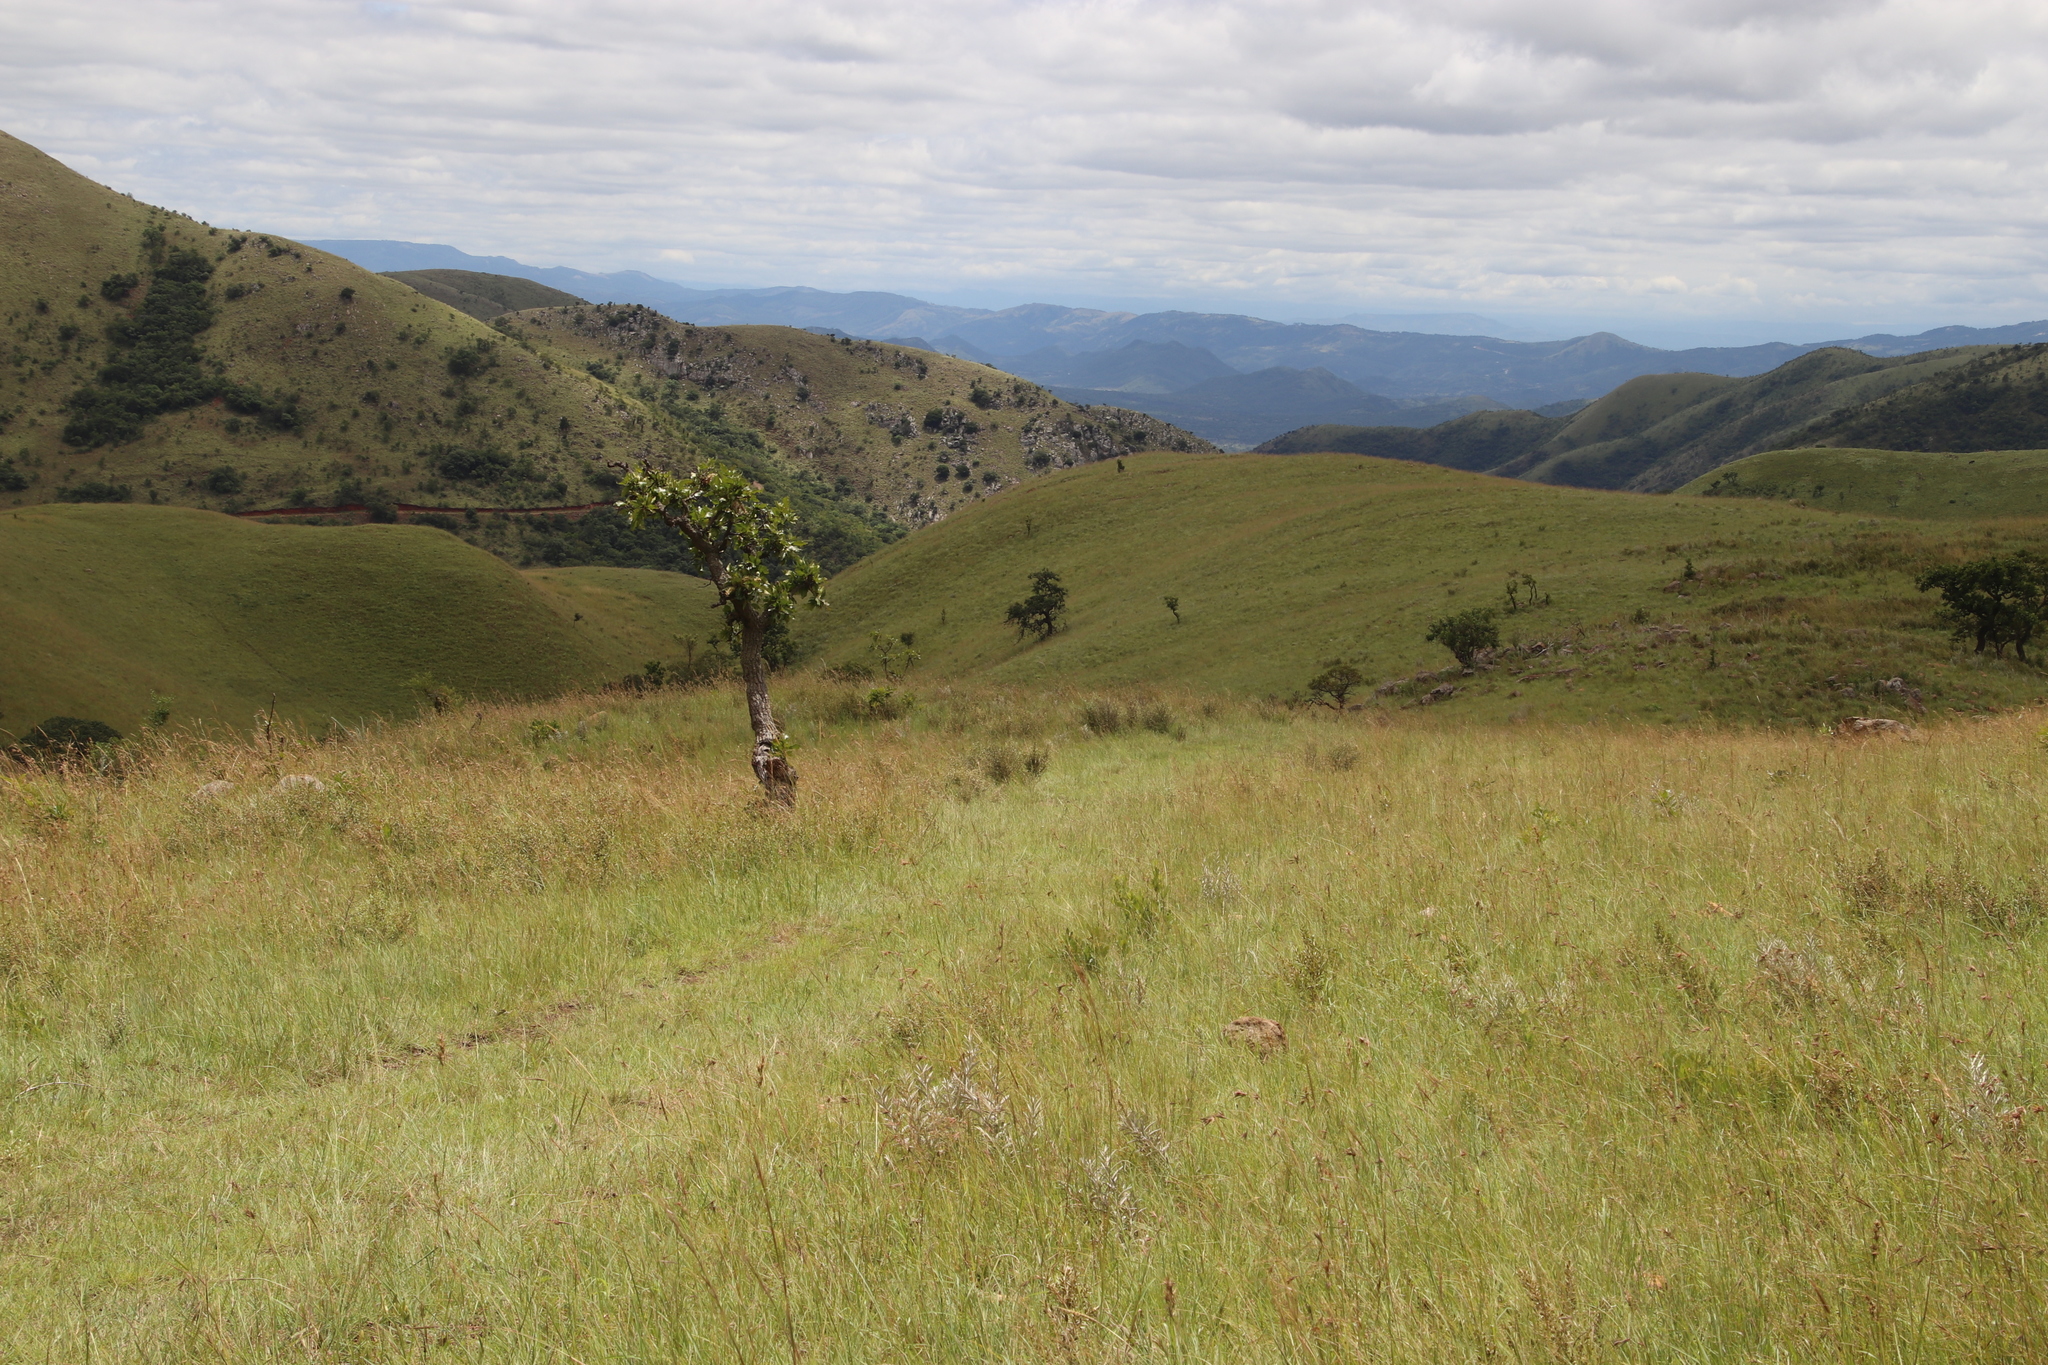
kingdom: Plantae
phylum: Tracheophyta
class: Magnoliopsida
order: Proteales
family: Proteaceae
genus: Faurea
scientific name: Faurea rochetiana
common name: Broad-leaved beech
